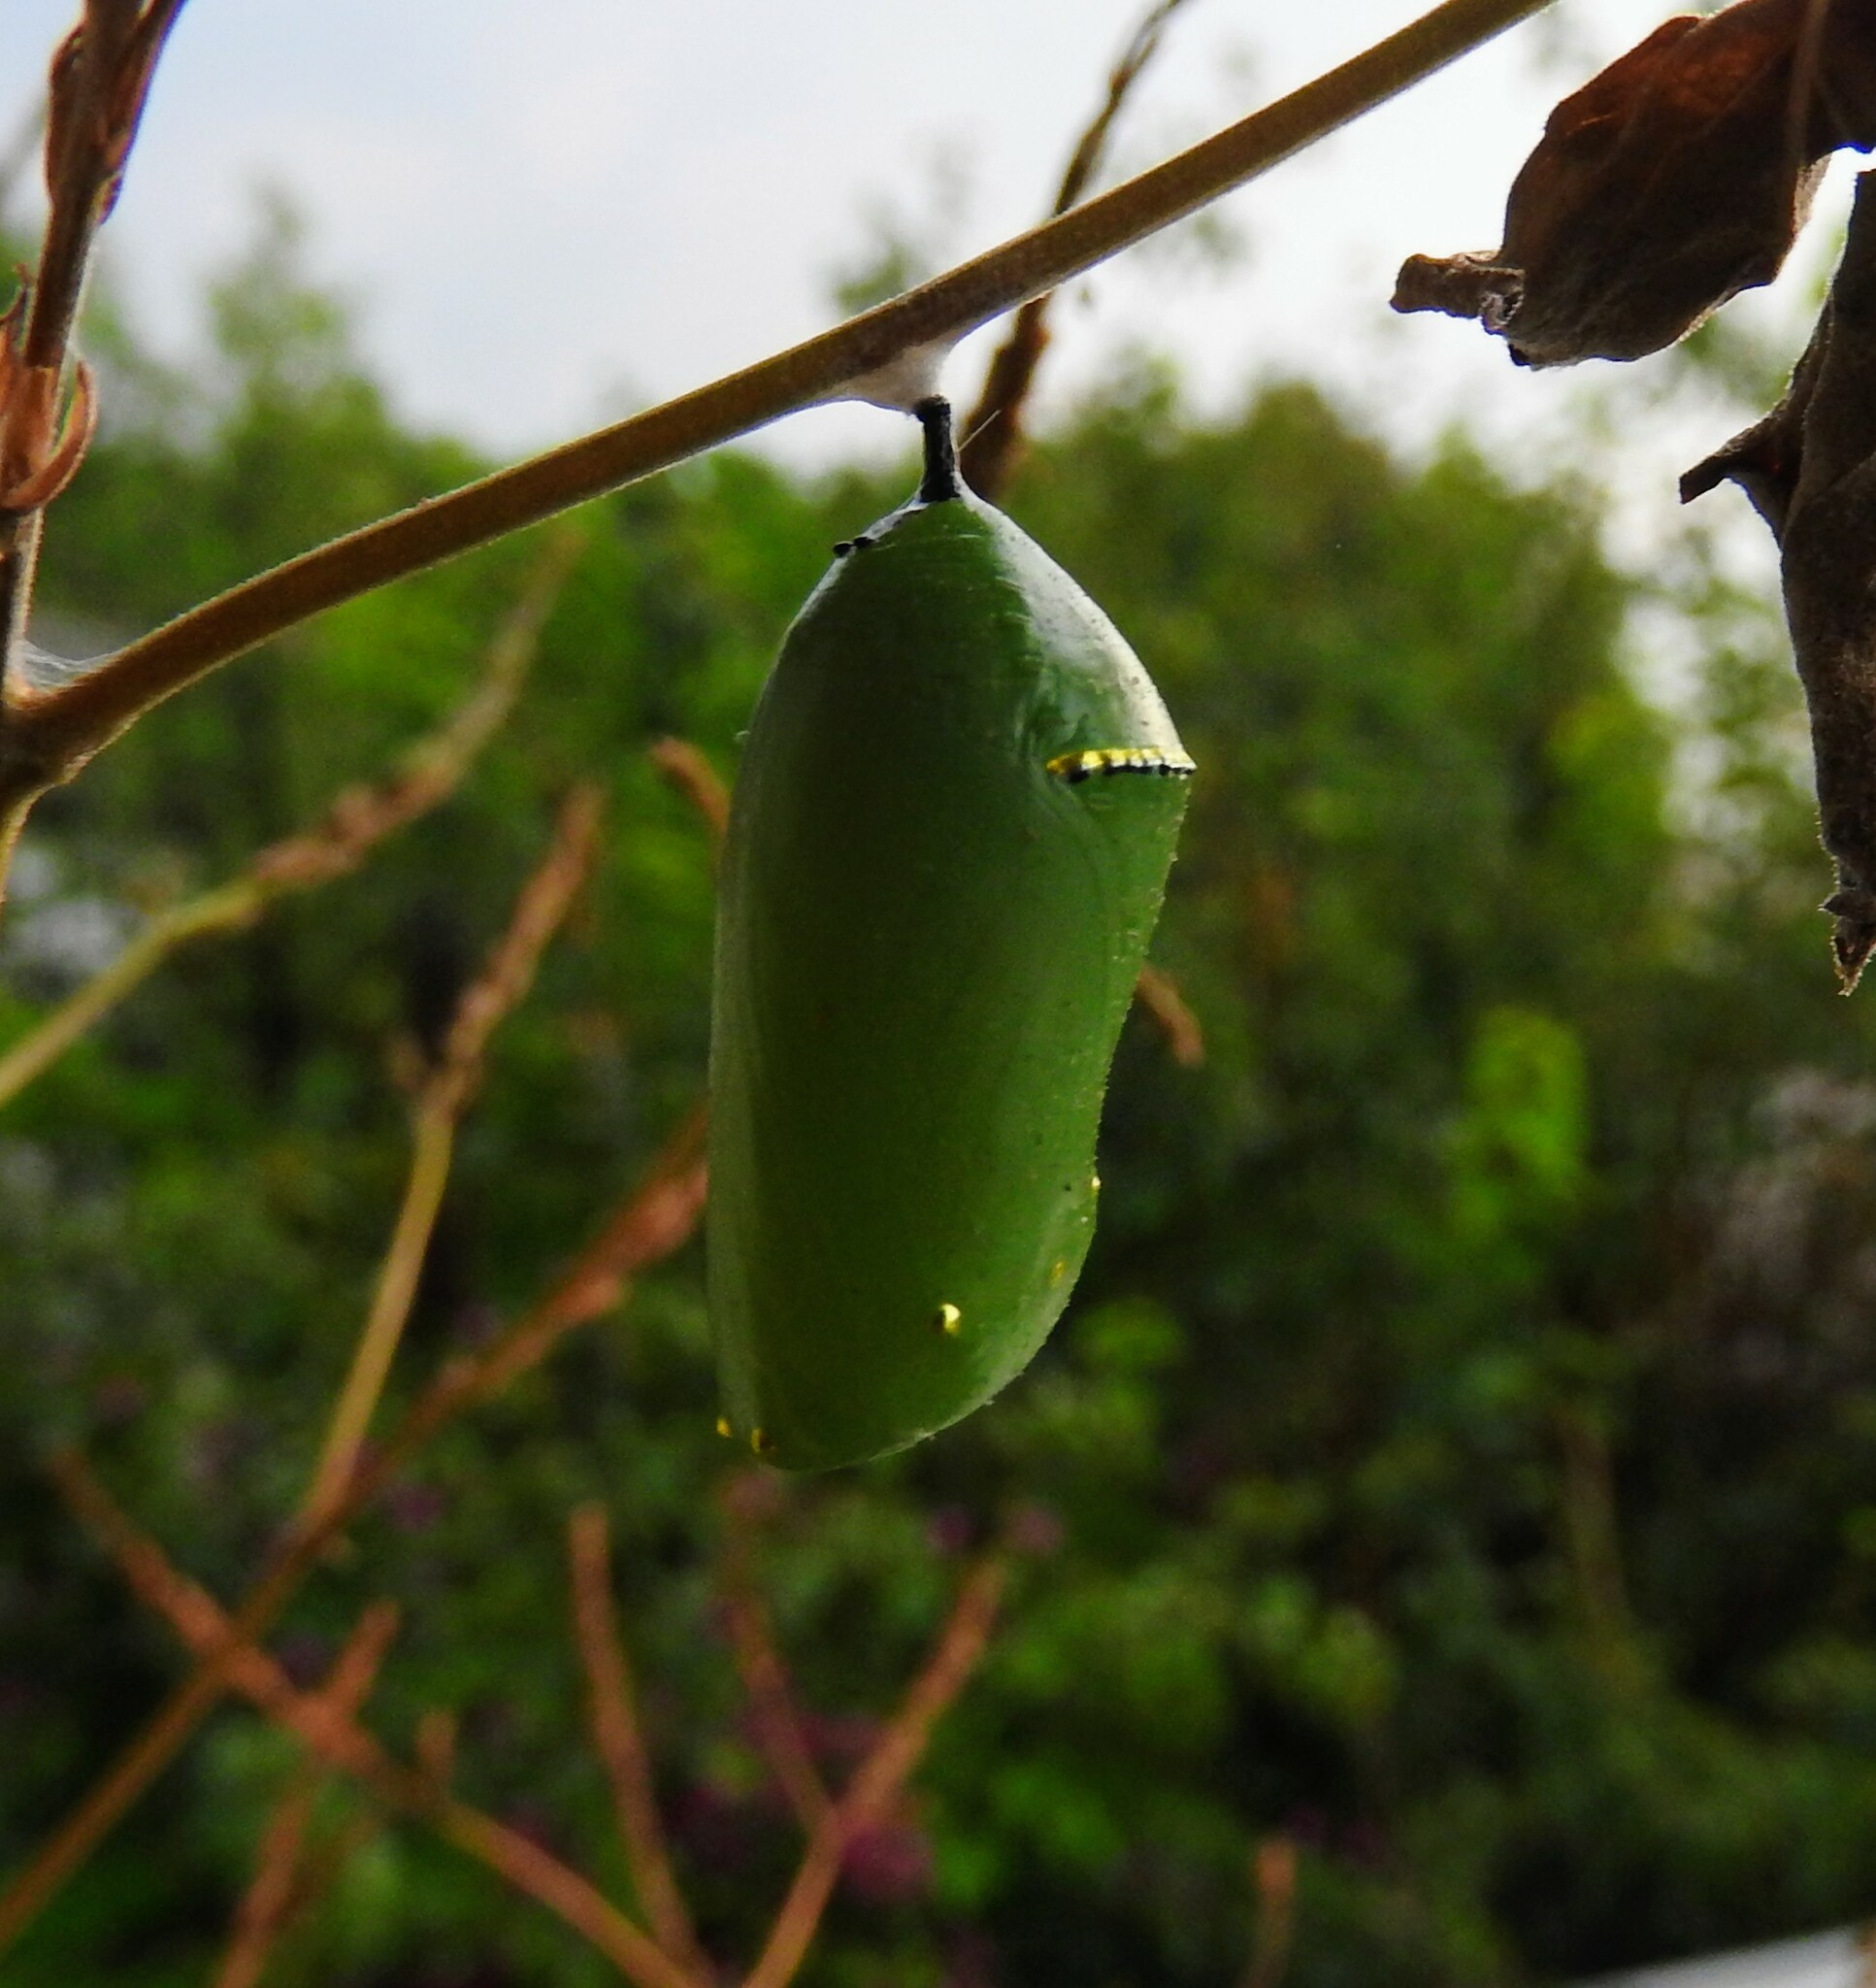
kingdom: Animalia
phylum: Arthropoda
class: Insecta
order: Lepidoptera
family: Nymphalidae
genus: Danaus
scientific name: Danaus plexippus
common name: Monarch
